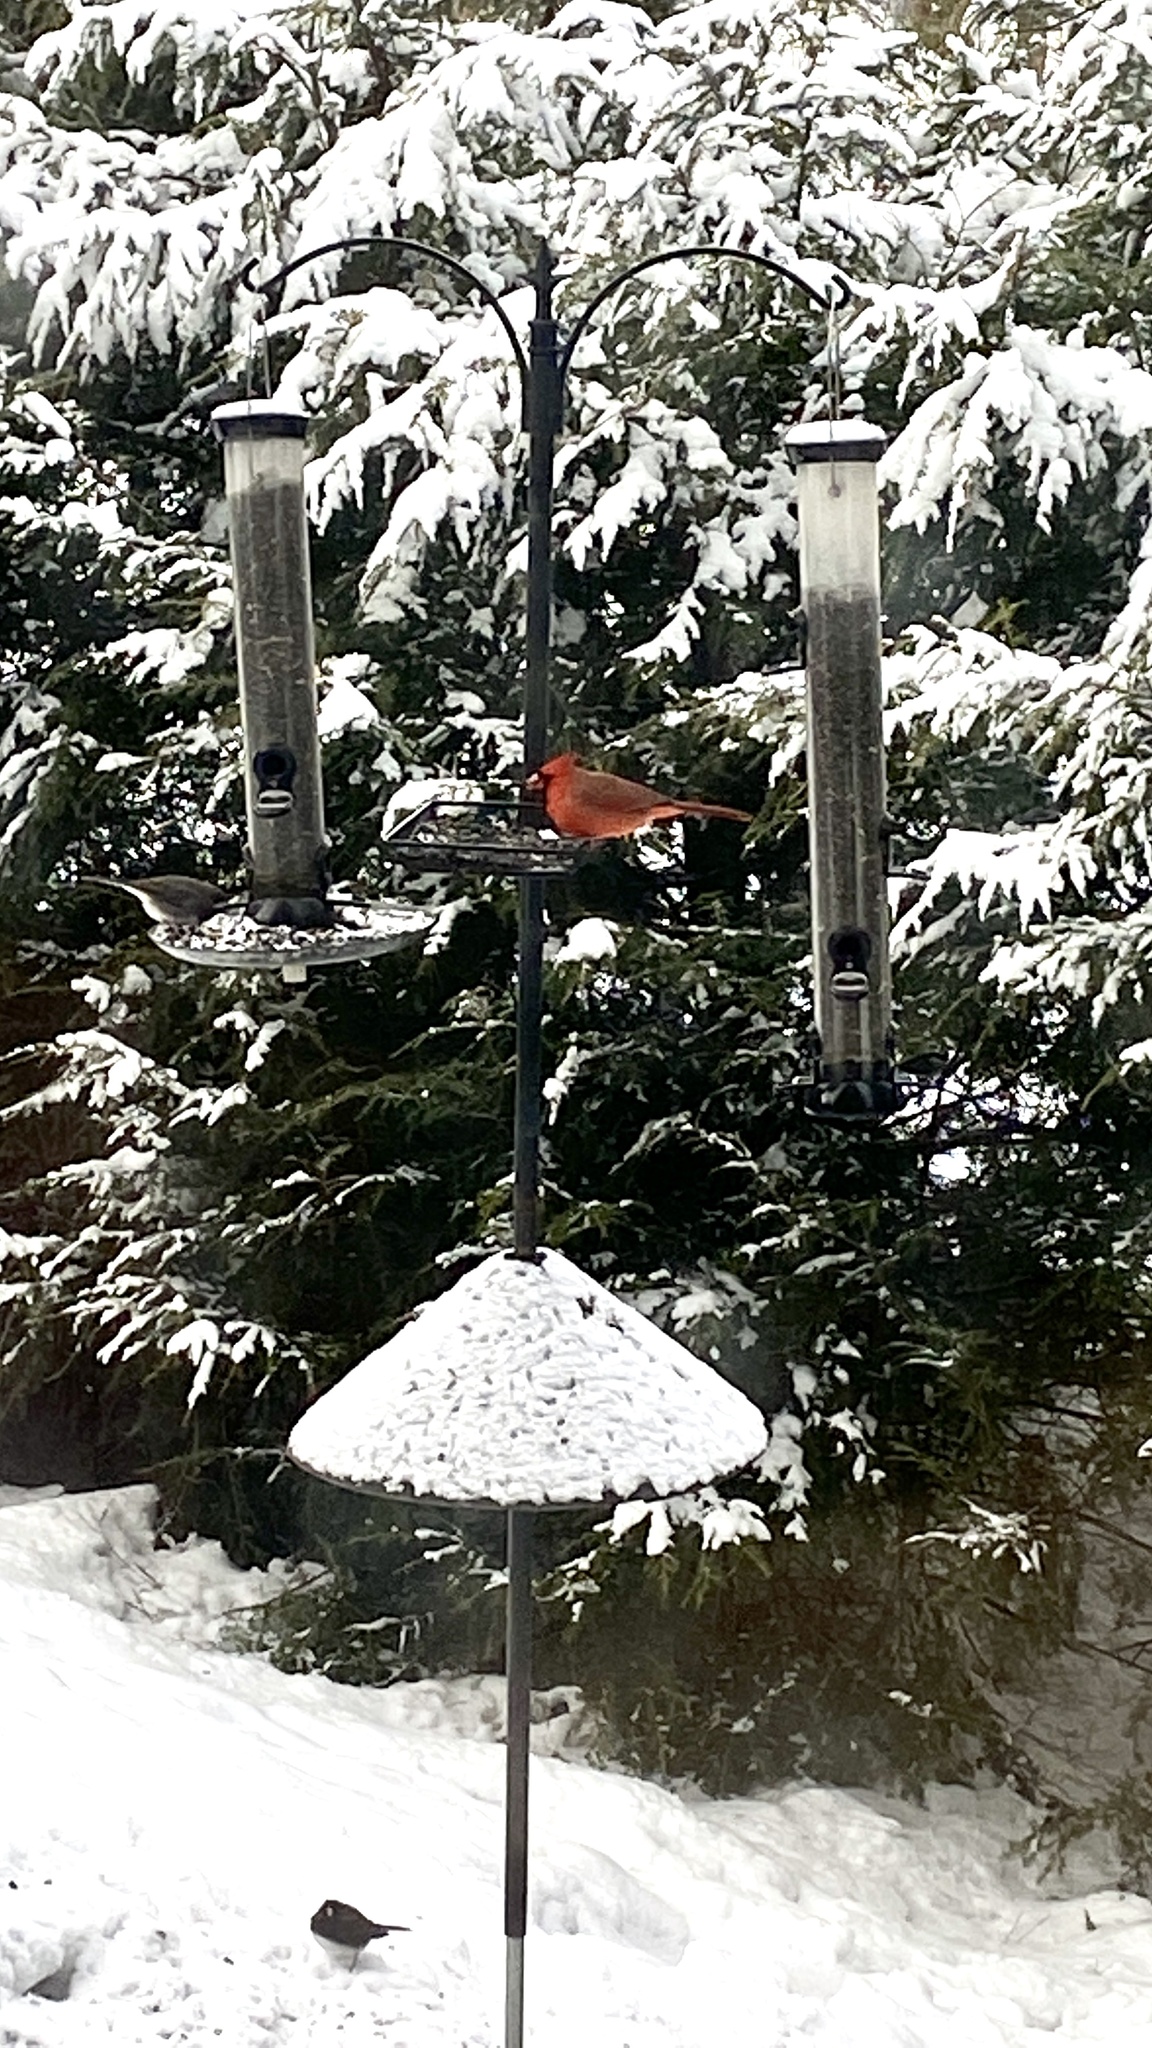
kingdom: Animalia
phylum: Chordata
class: Aves
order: Passeriformes
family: Cardinalidae
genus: Cardinalis
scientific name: Cardinalis cardinalis
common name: Northern cardinal
